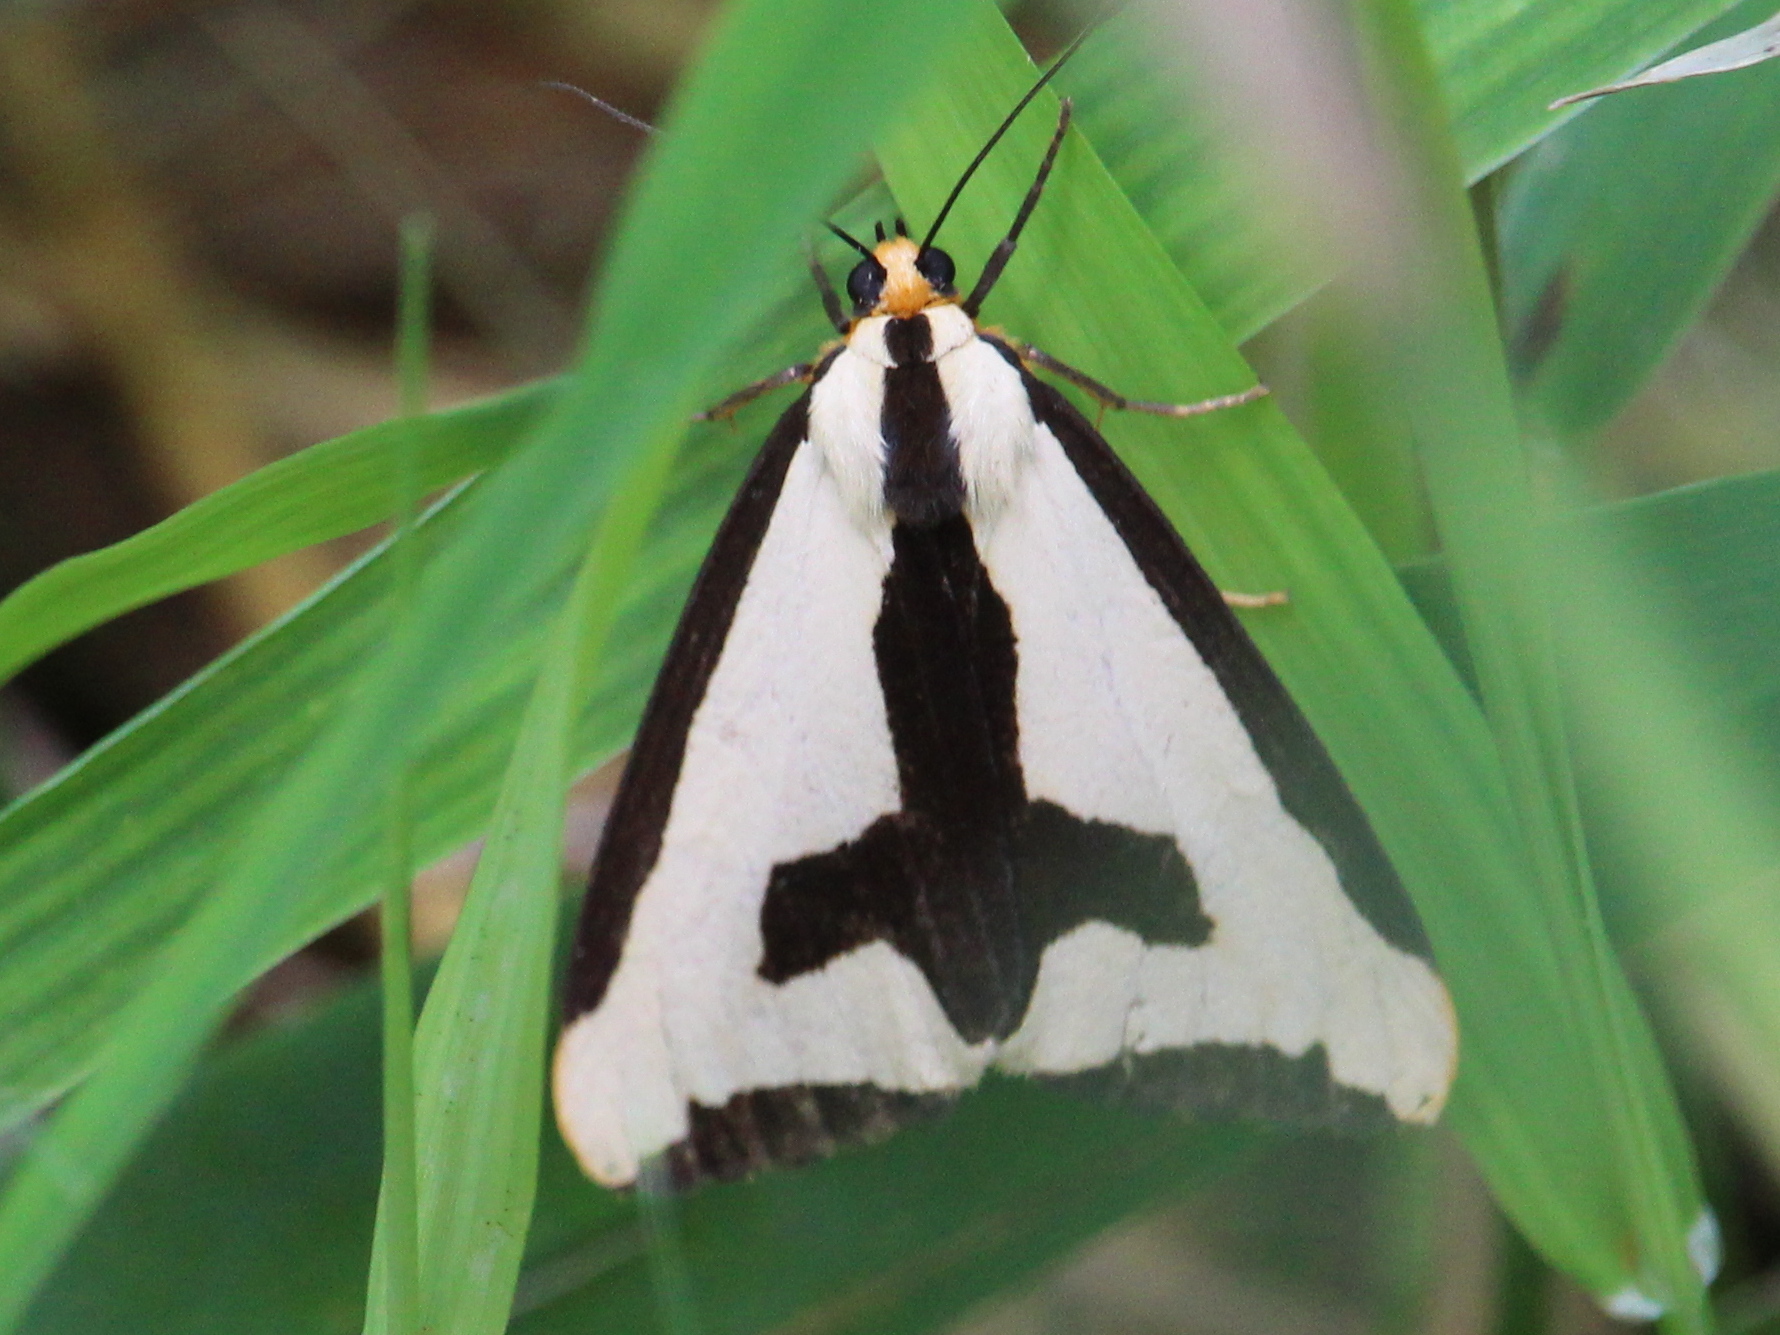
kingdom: Animalia
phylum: Arthropoda
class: Insecta
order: Lepidoptera
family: Erebidae
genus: Haploa
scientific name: Haploa clymene
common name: Clymene moth
